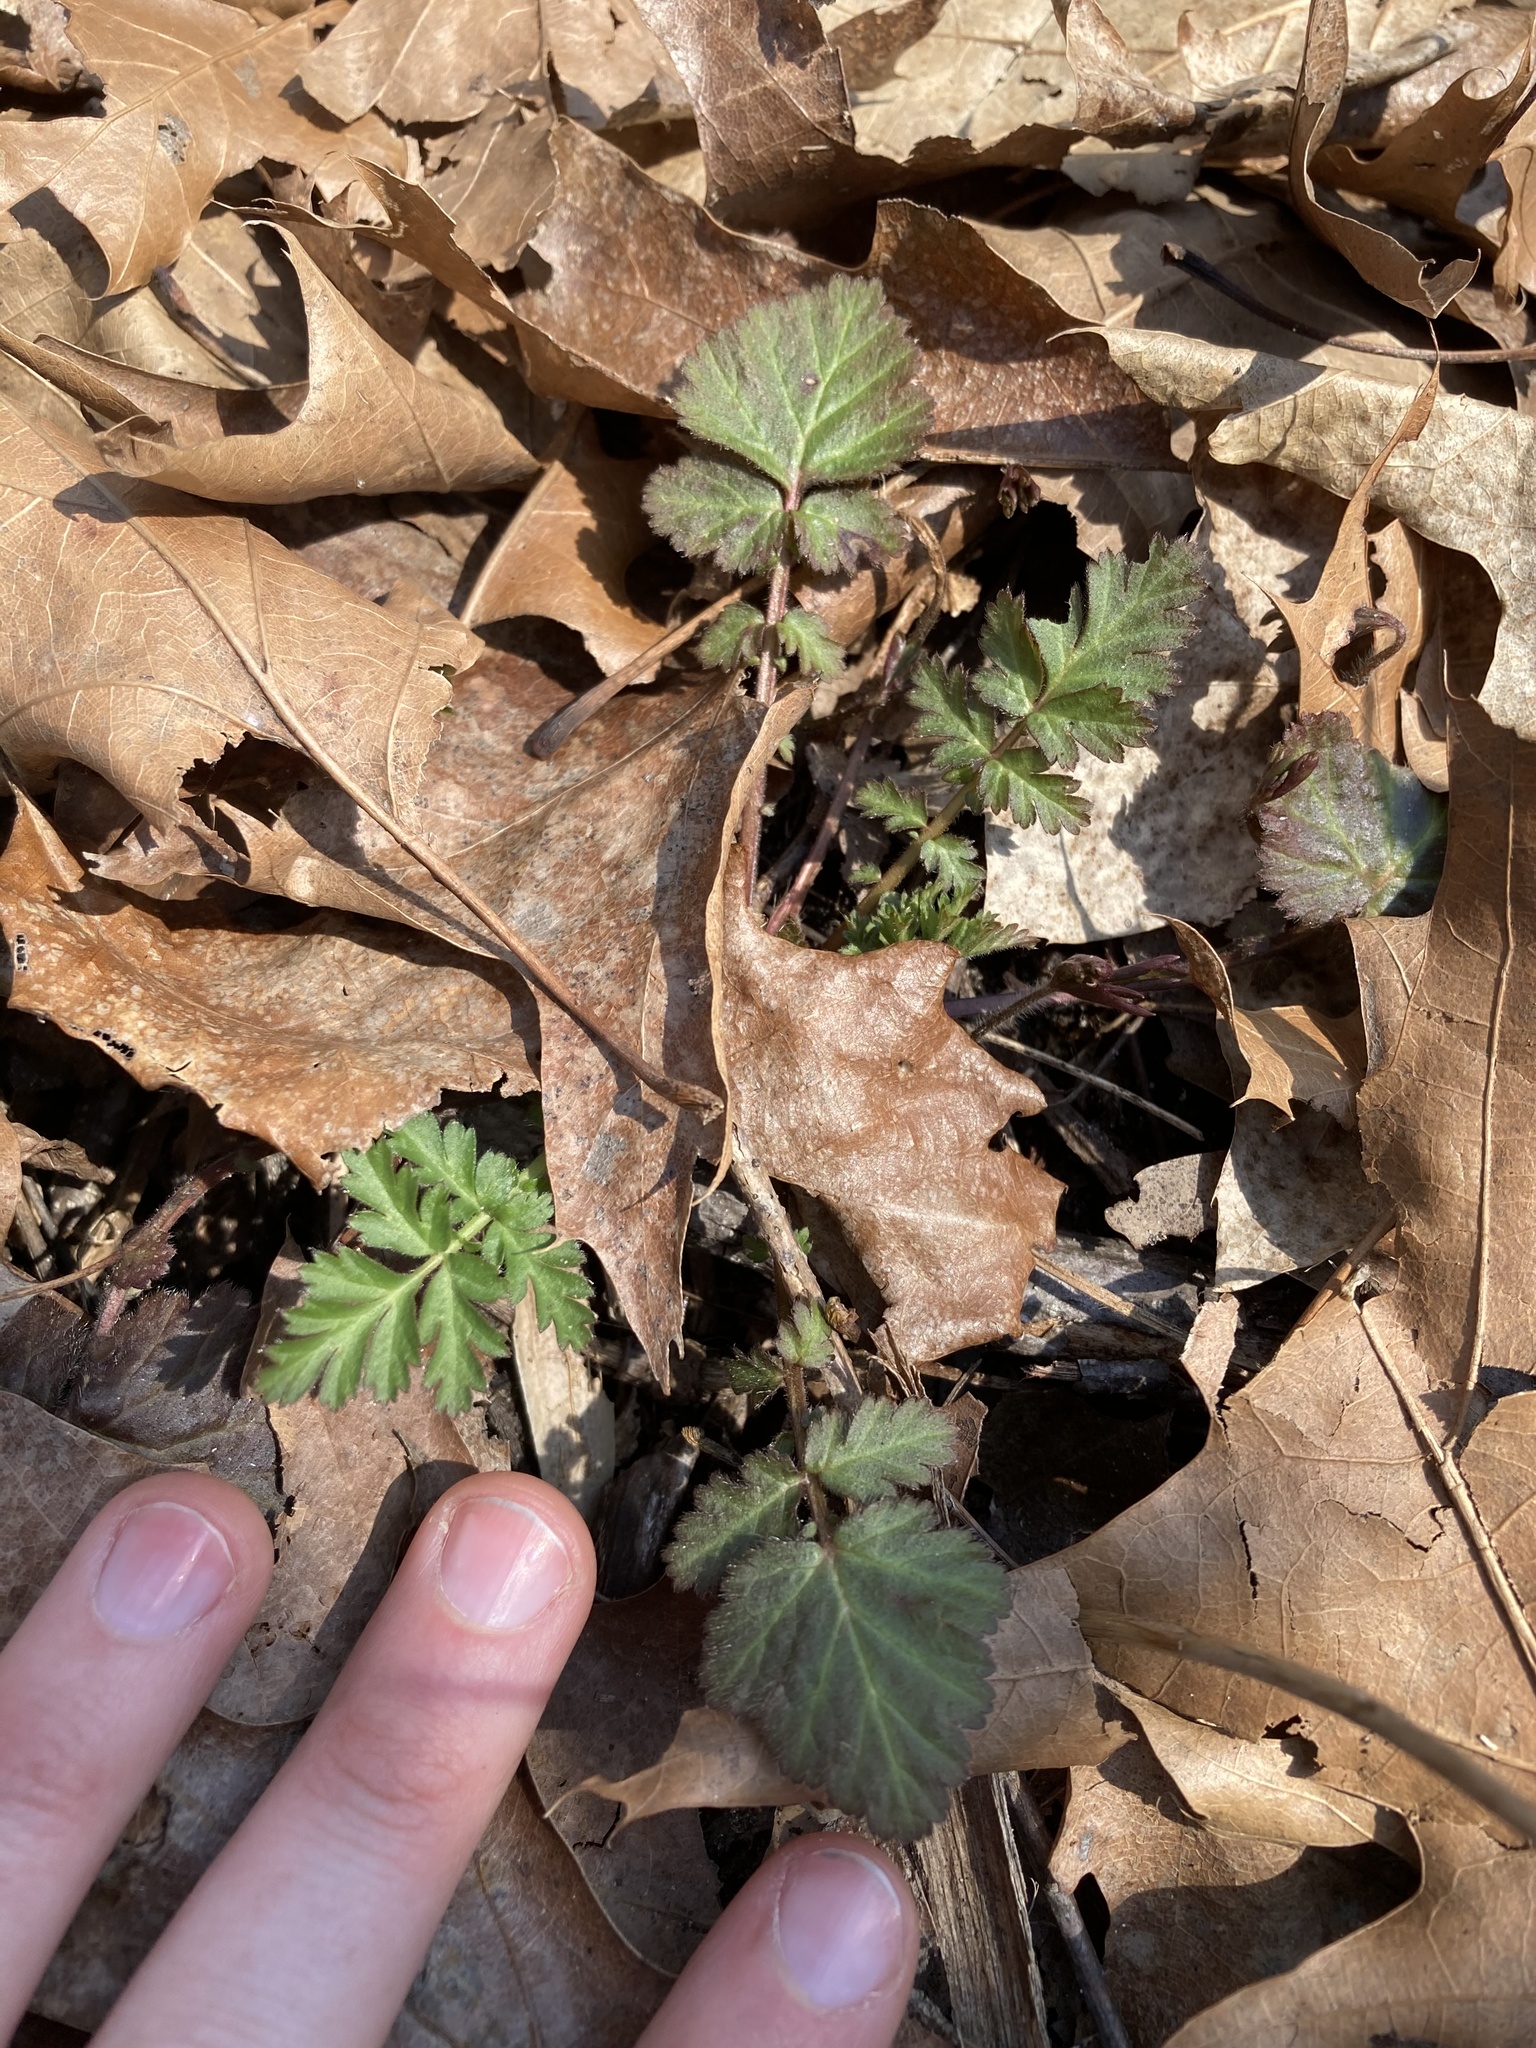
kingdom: Plantae
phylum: Tracheophyta
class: Magnoliopsida
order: Rosales
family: Rosaceae
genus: Geum
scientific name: Geum canadense
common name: White avens
